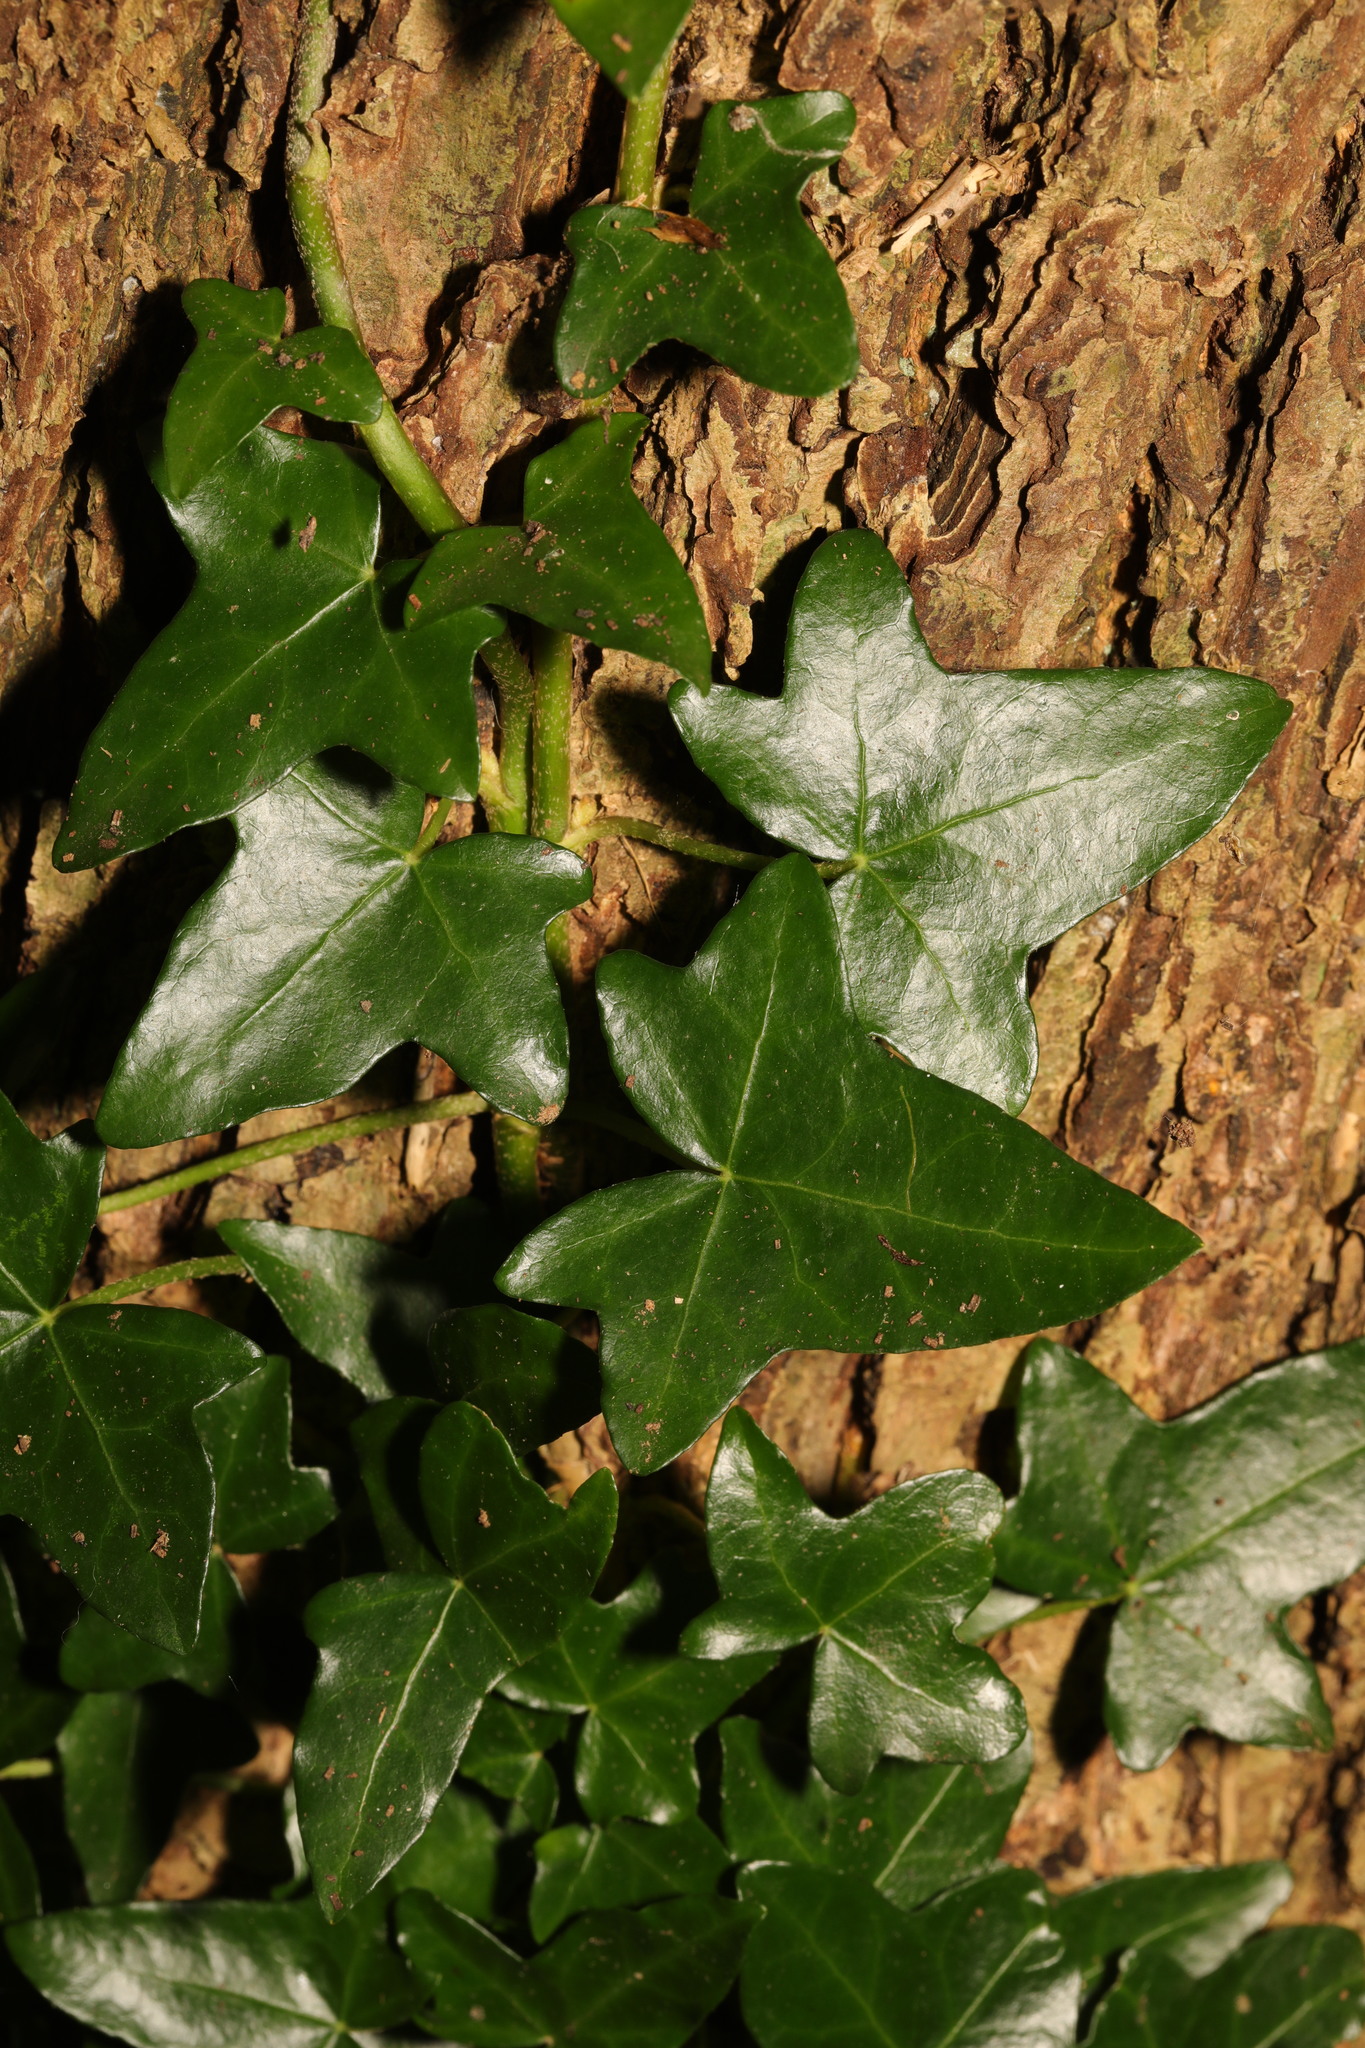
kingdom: Plantae
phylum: Tracheophyta
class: Magnoliopsida
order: Apiales
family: Araliaceae
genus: Hedera
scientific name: Hedera helix
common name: Ivy
